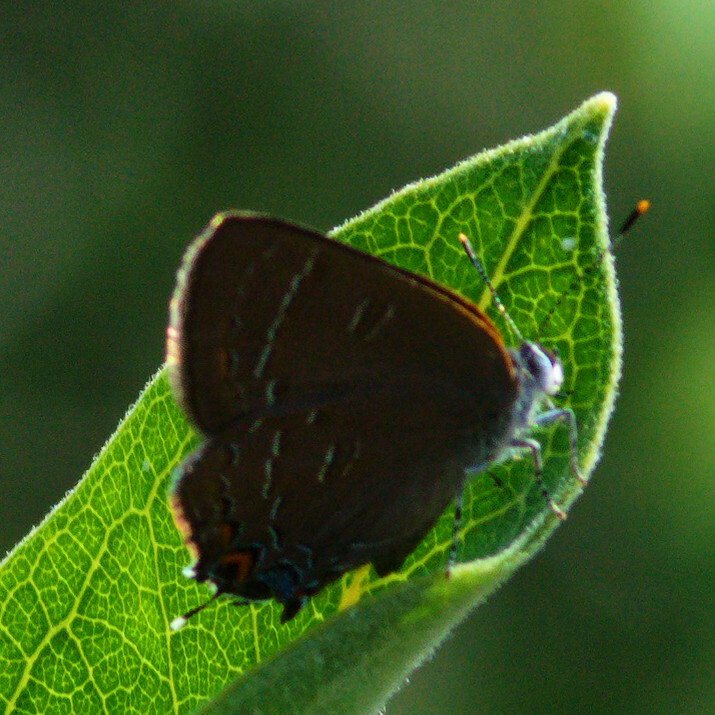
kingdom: Animalia
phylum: Arthropoda
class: Insecta
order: Lepidoptera
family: Lycaenidae
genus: Satyrium
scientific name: Satyrium calanus
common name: Banded hairstreak
